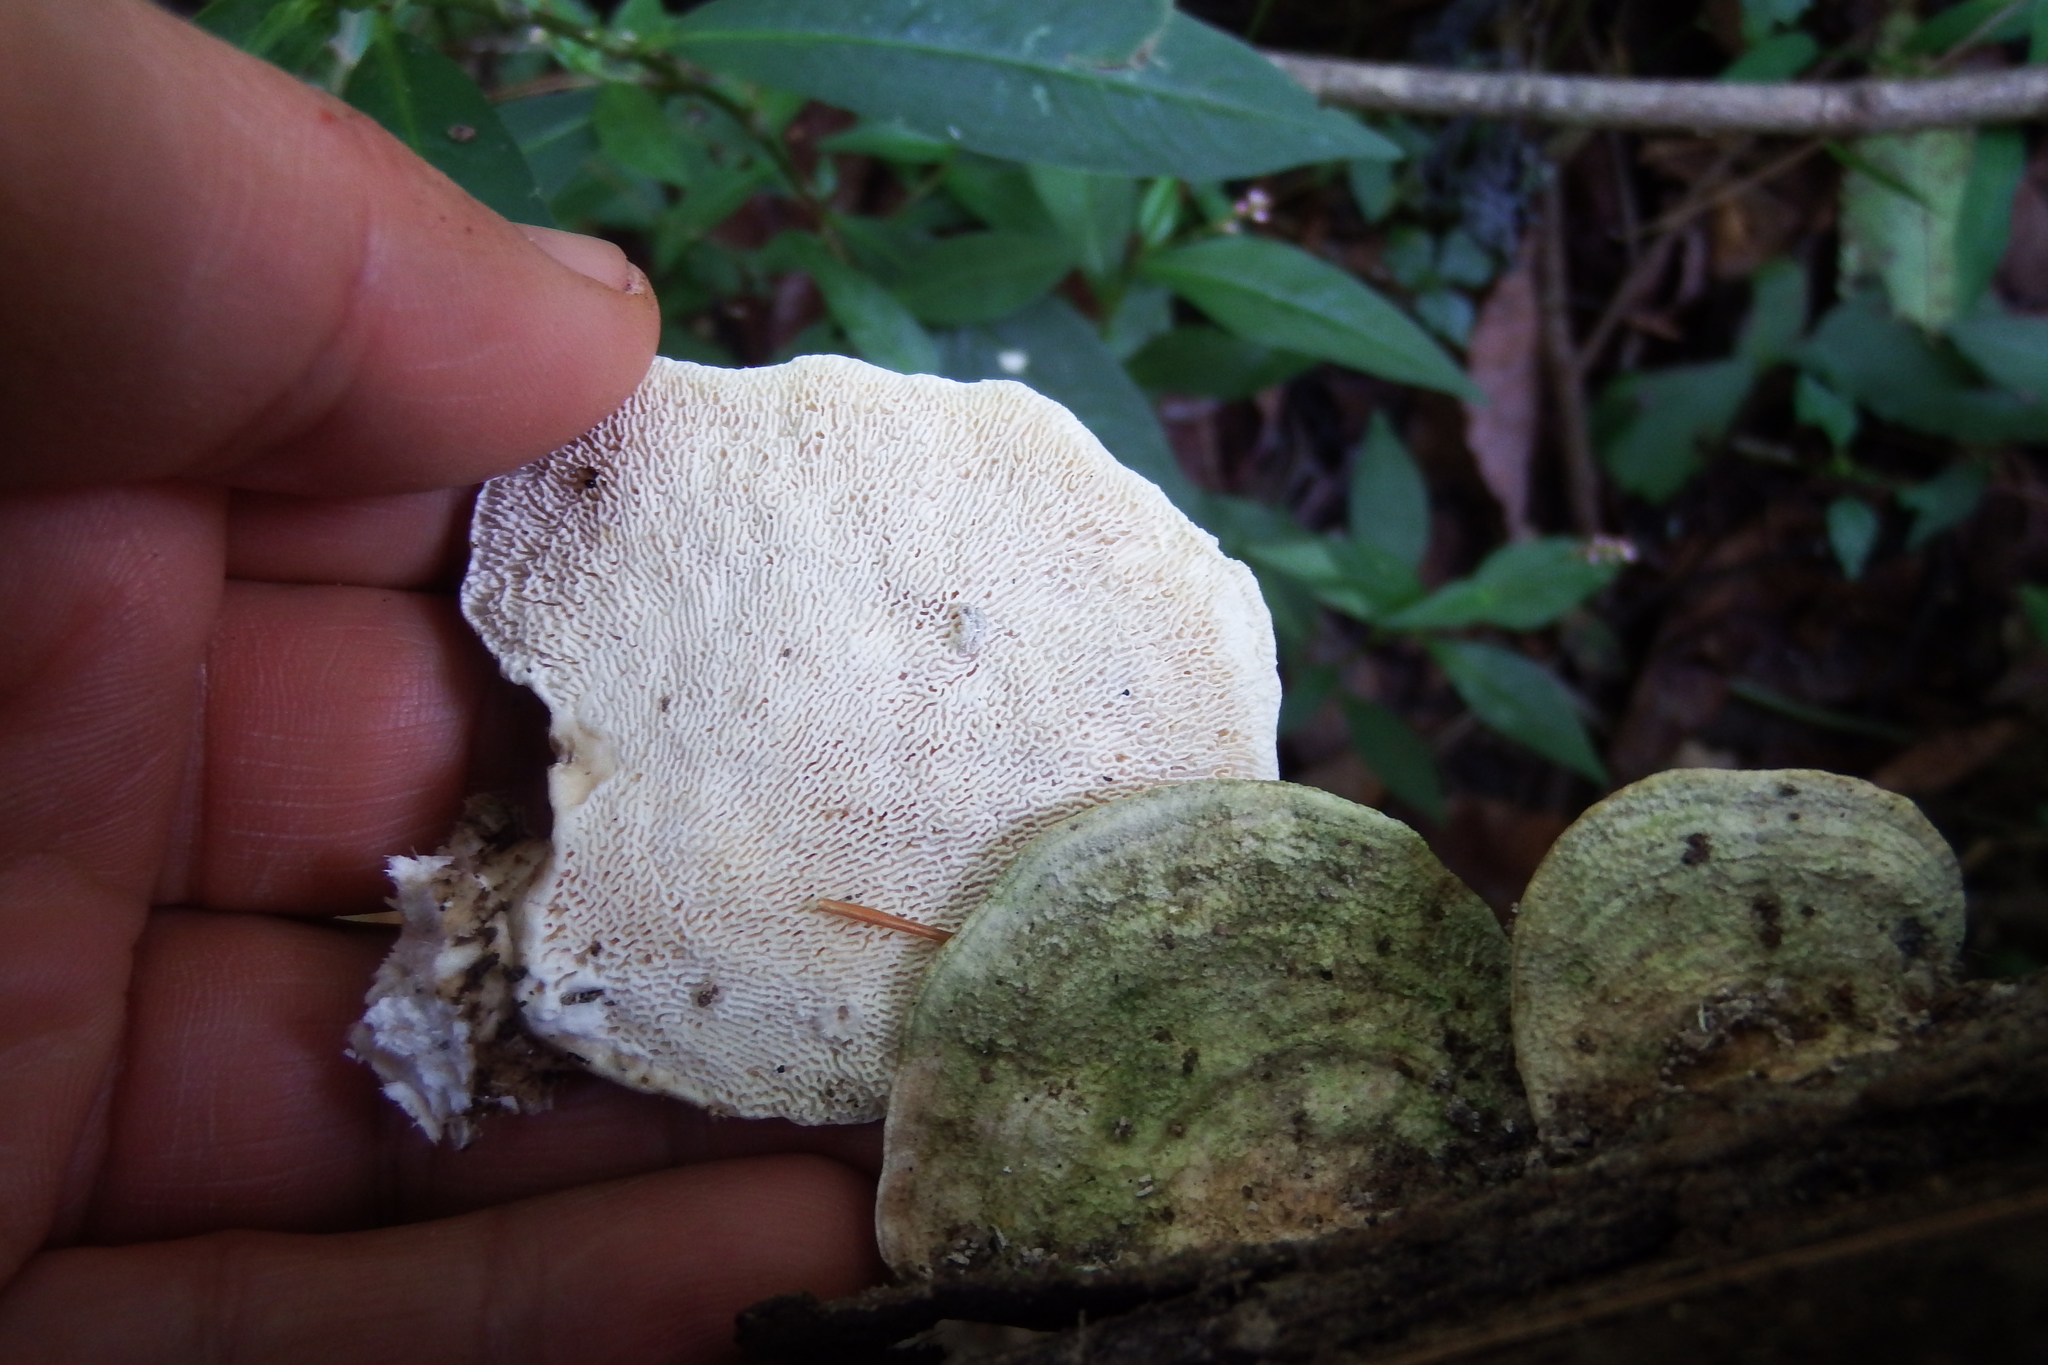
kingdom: Fungi
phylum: Basidiomycota
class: Agaricomycetes
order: Polyporales
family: Polyporaceae
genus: Trametes
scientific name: Trametes gibbosa
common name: Lumpy bracket
